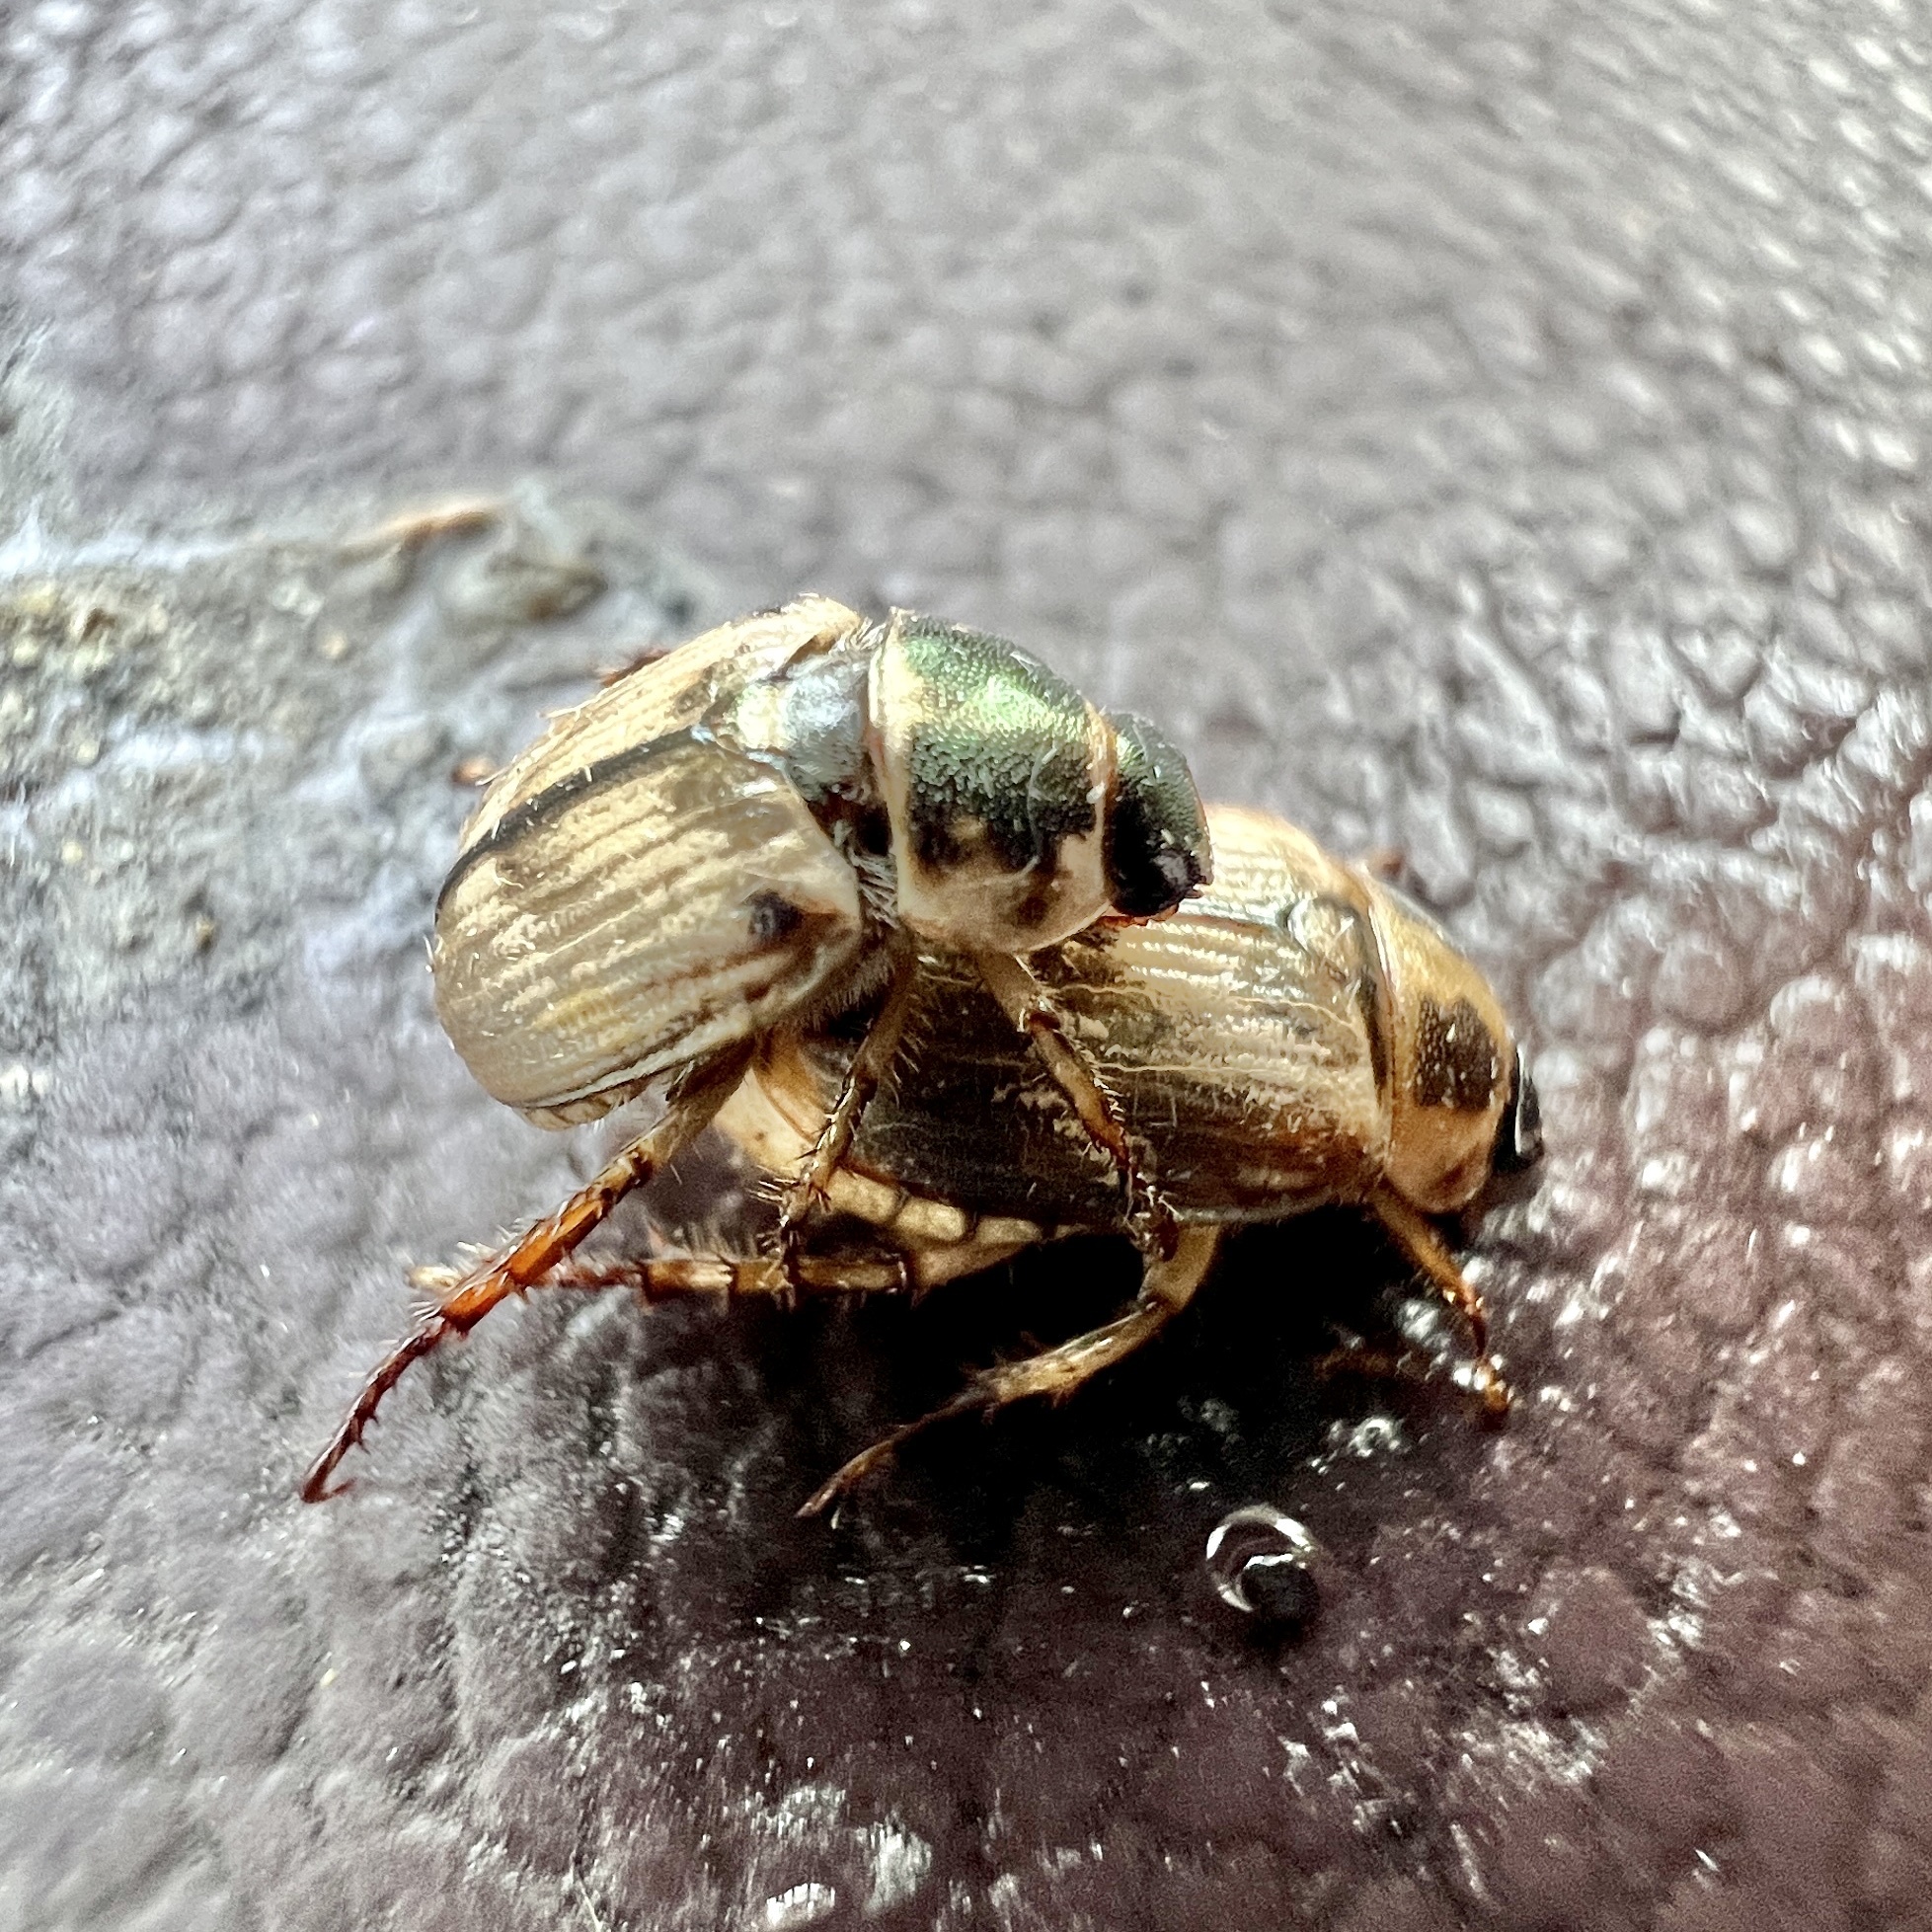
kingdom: Animalia
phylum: Arthropoda
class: Insecta
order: Coleoptera
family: Scarabaeidae
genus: Exomala
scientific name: Exomala orientalis
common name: Oriental beetle
